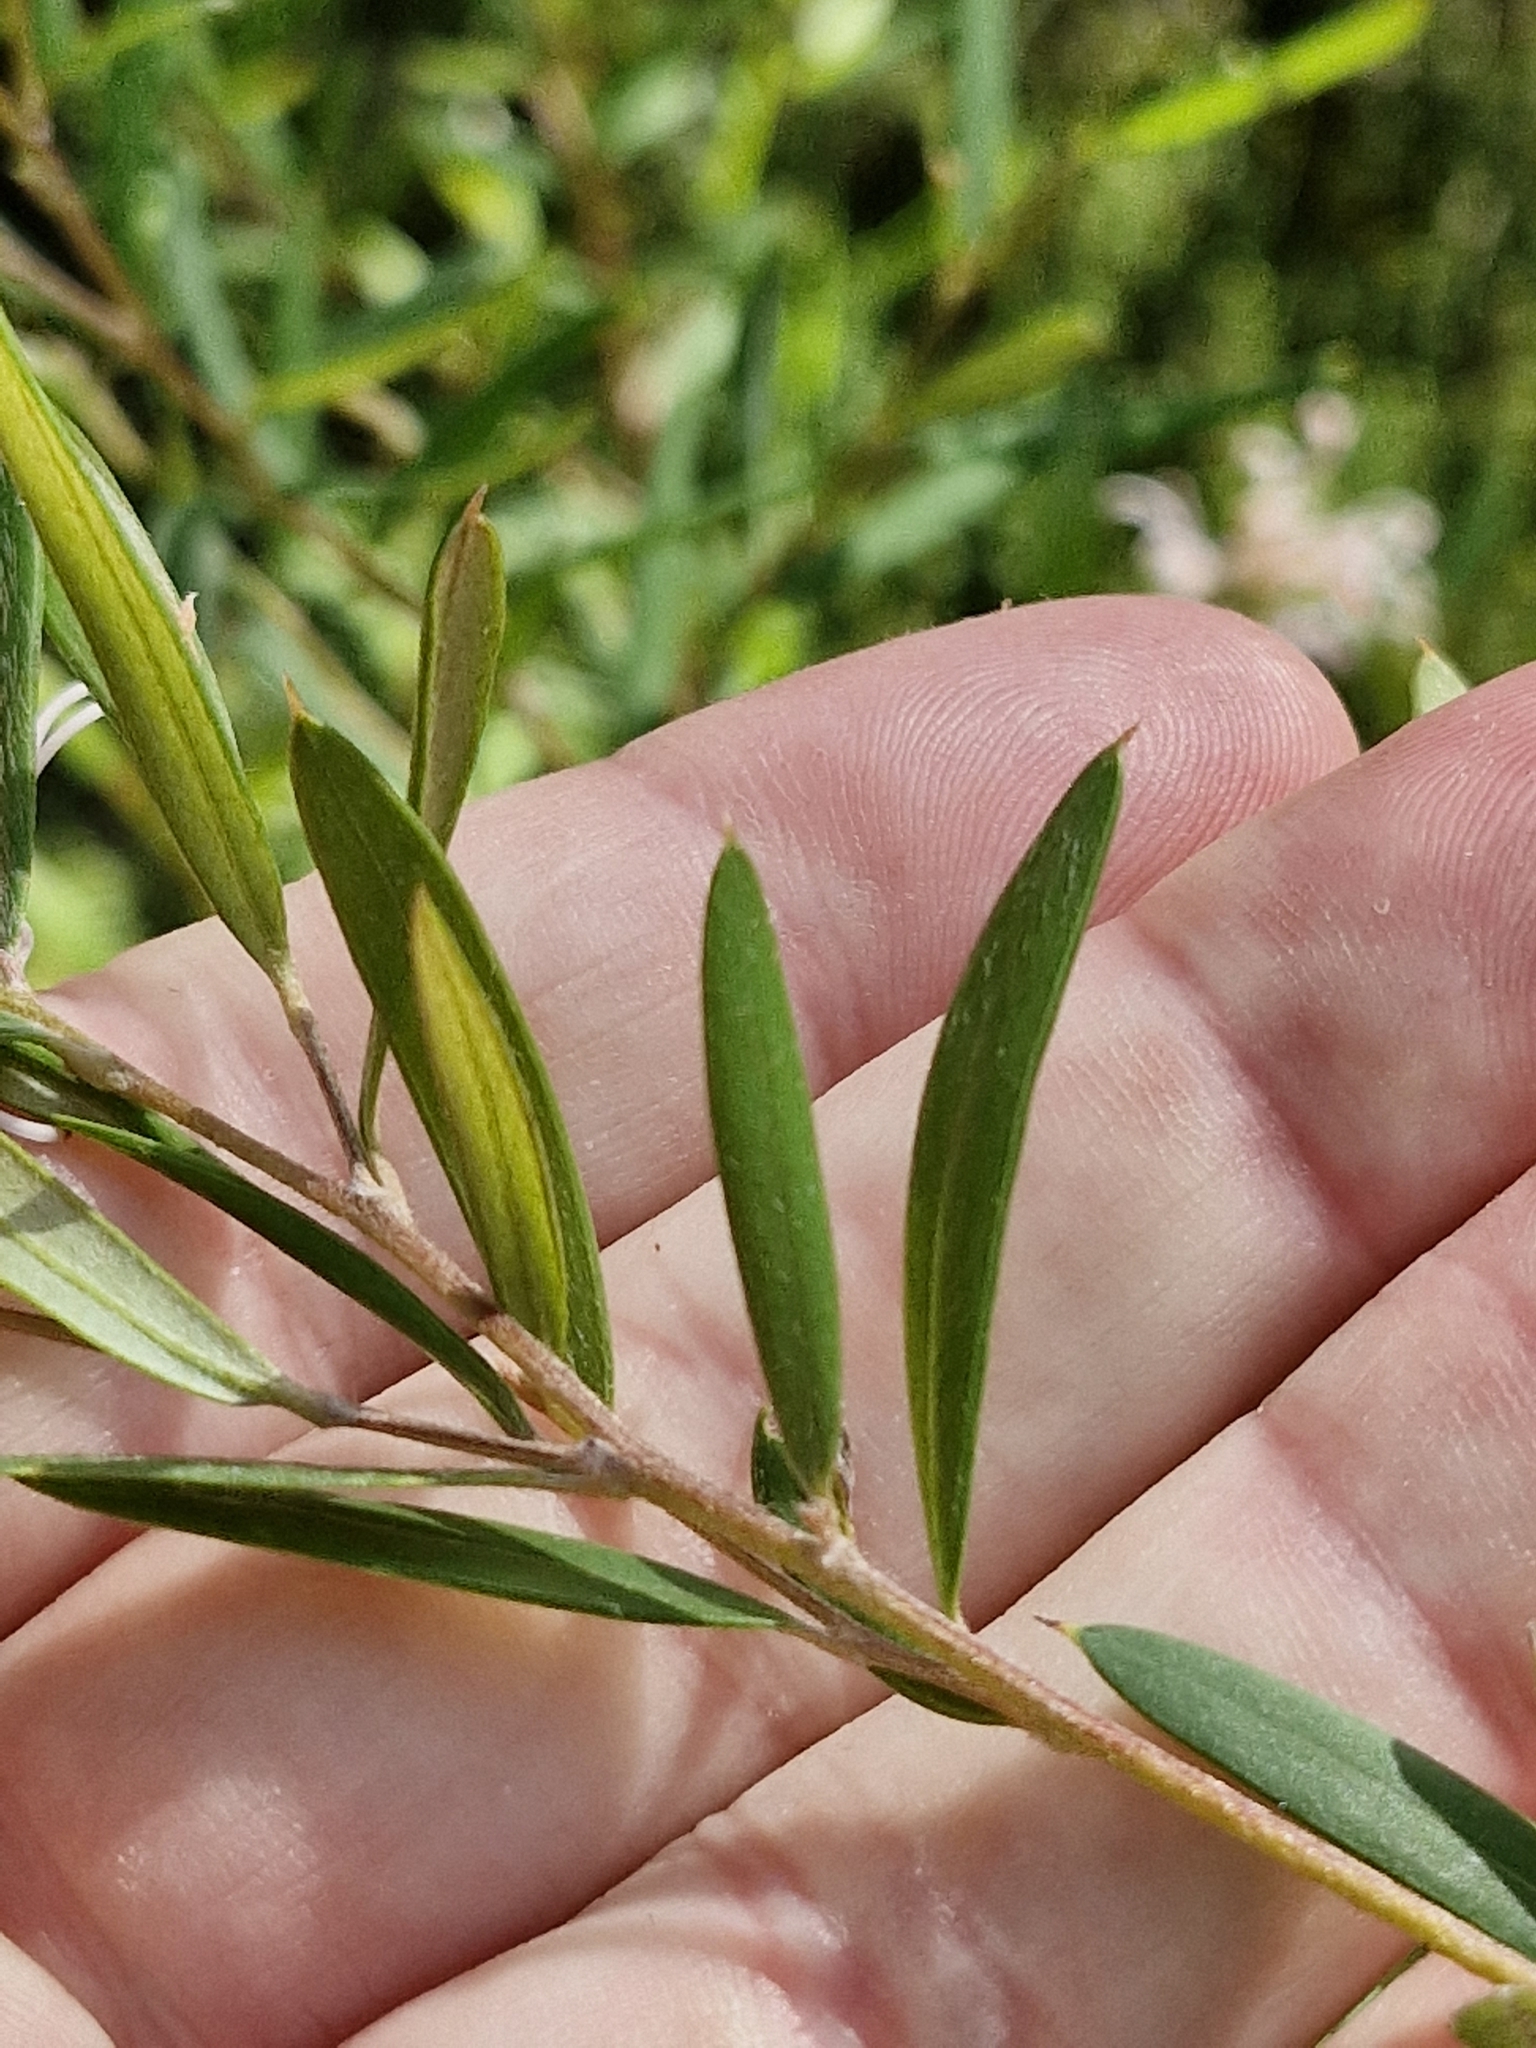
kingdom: Plantae
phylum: Tracheophyta
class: Magnoliopsida
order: Proteales
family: Proteaceae
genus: Grevillea
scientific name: Grevillea sericea
